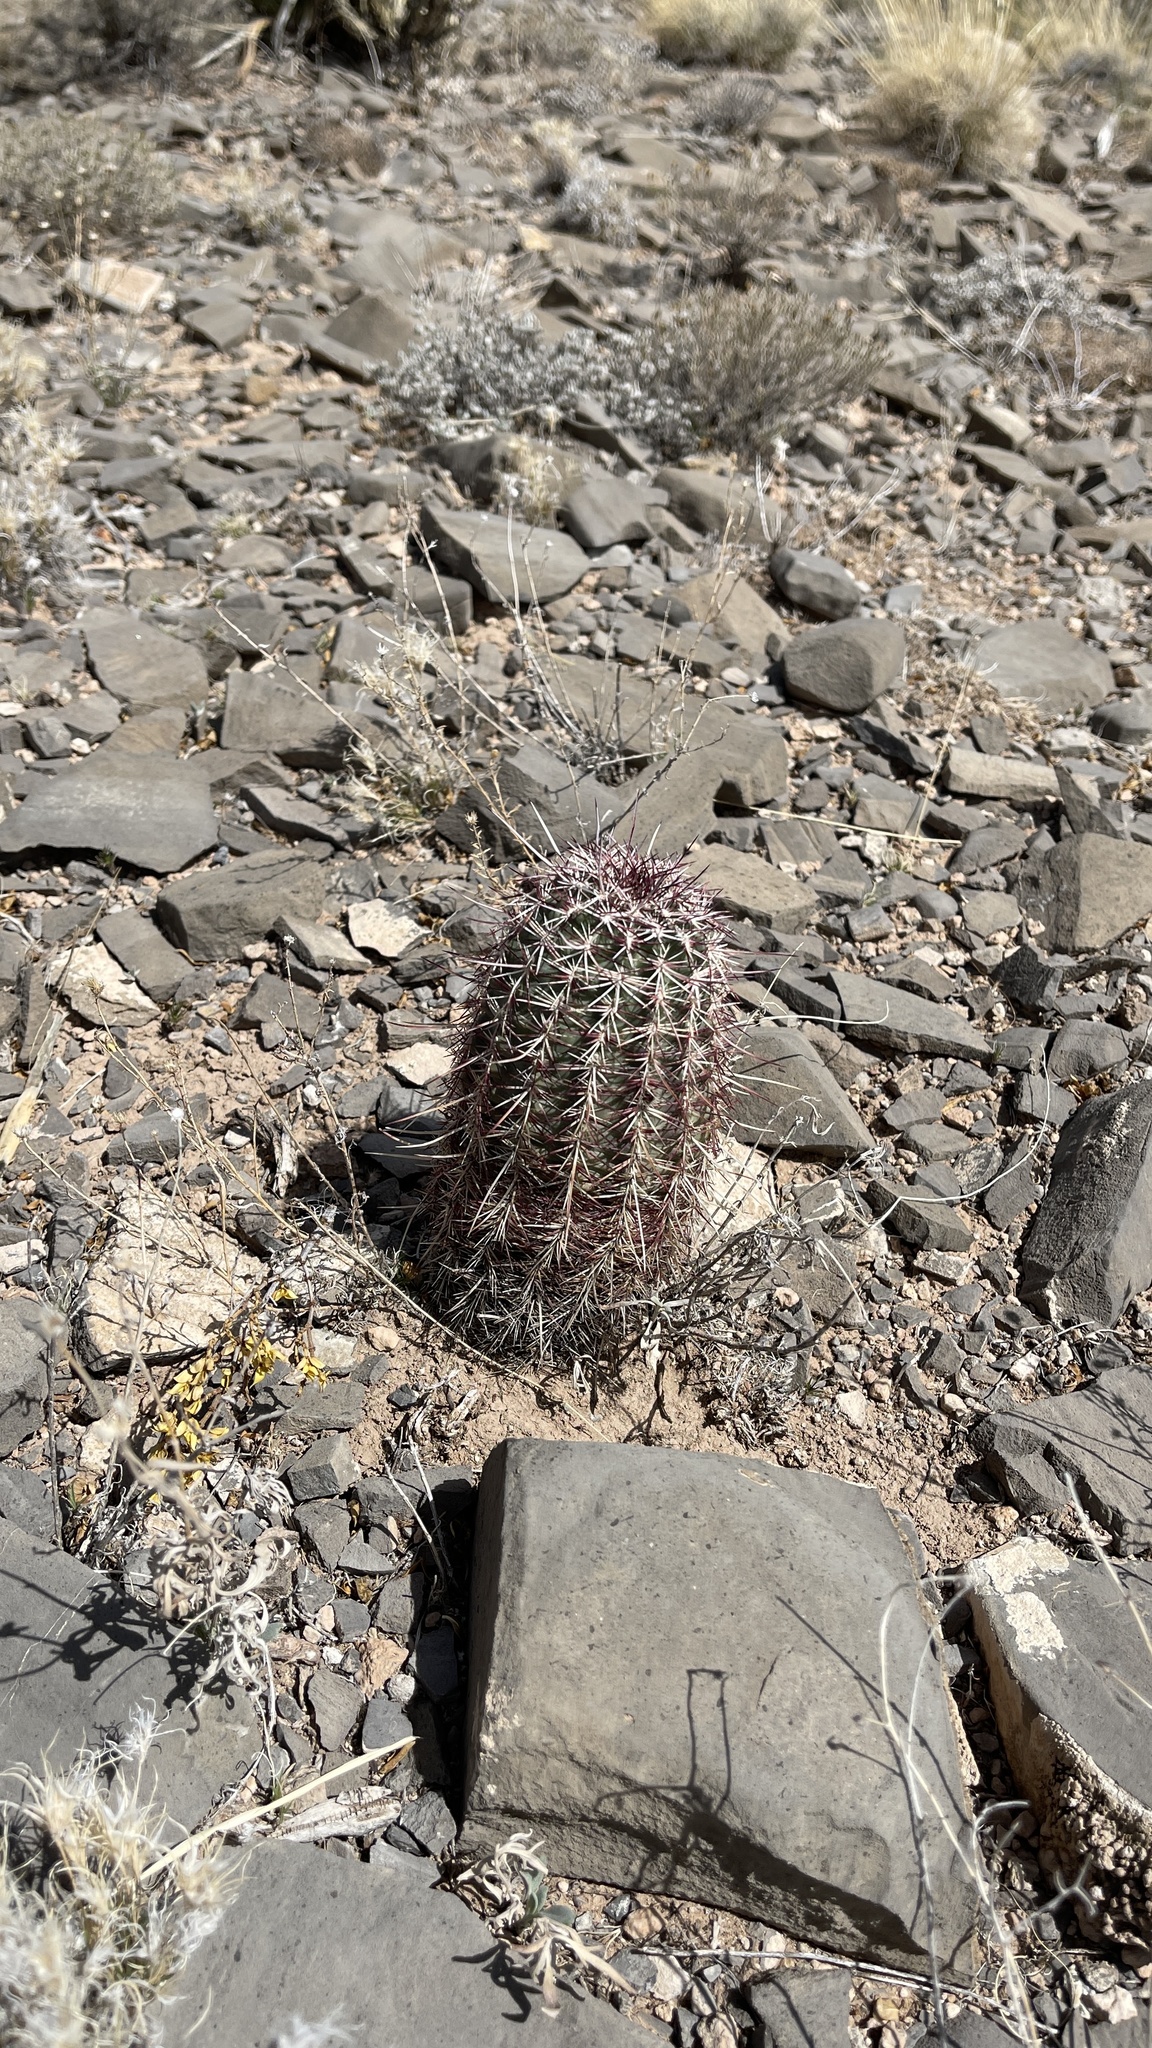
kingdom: Plantae
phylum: Tracheophyta
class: Magnoliopsida
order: Caryophyllales
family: Cactaceae
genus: Echinocereus
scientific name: Echinocereus viridiflorus
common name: Nylon hedgehog cactus
